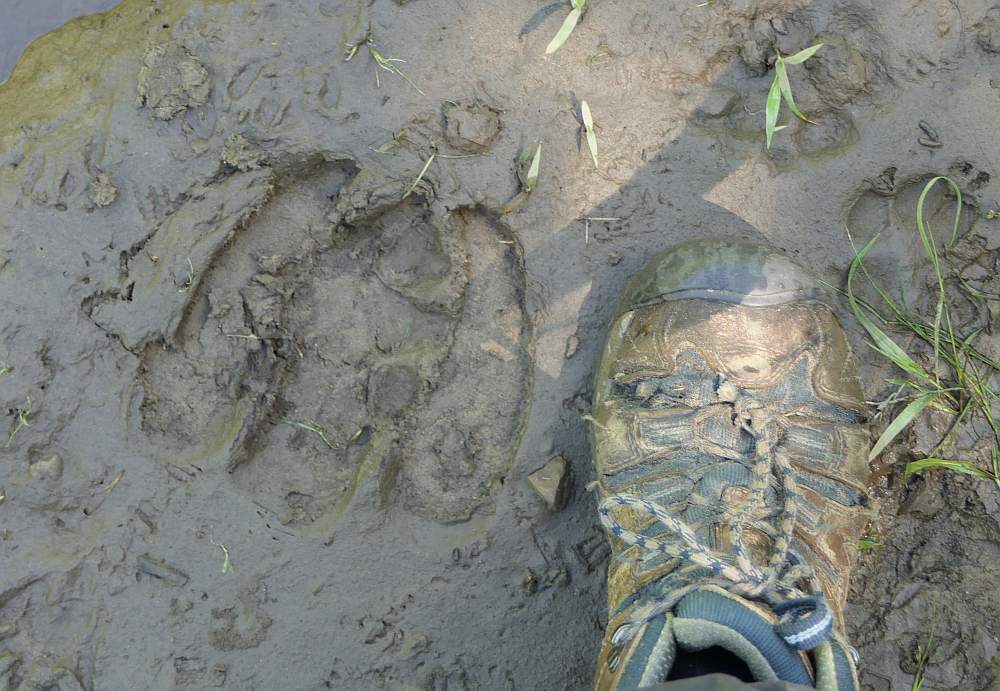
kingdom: Animalia
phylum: Chordata
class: Mammalia
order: Artiodactyla
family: Cervidae
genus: Alces
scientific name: Alces alces
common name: Moose
